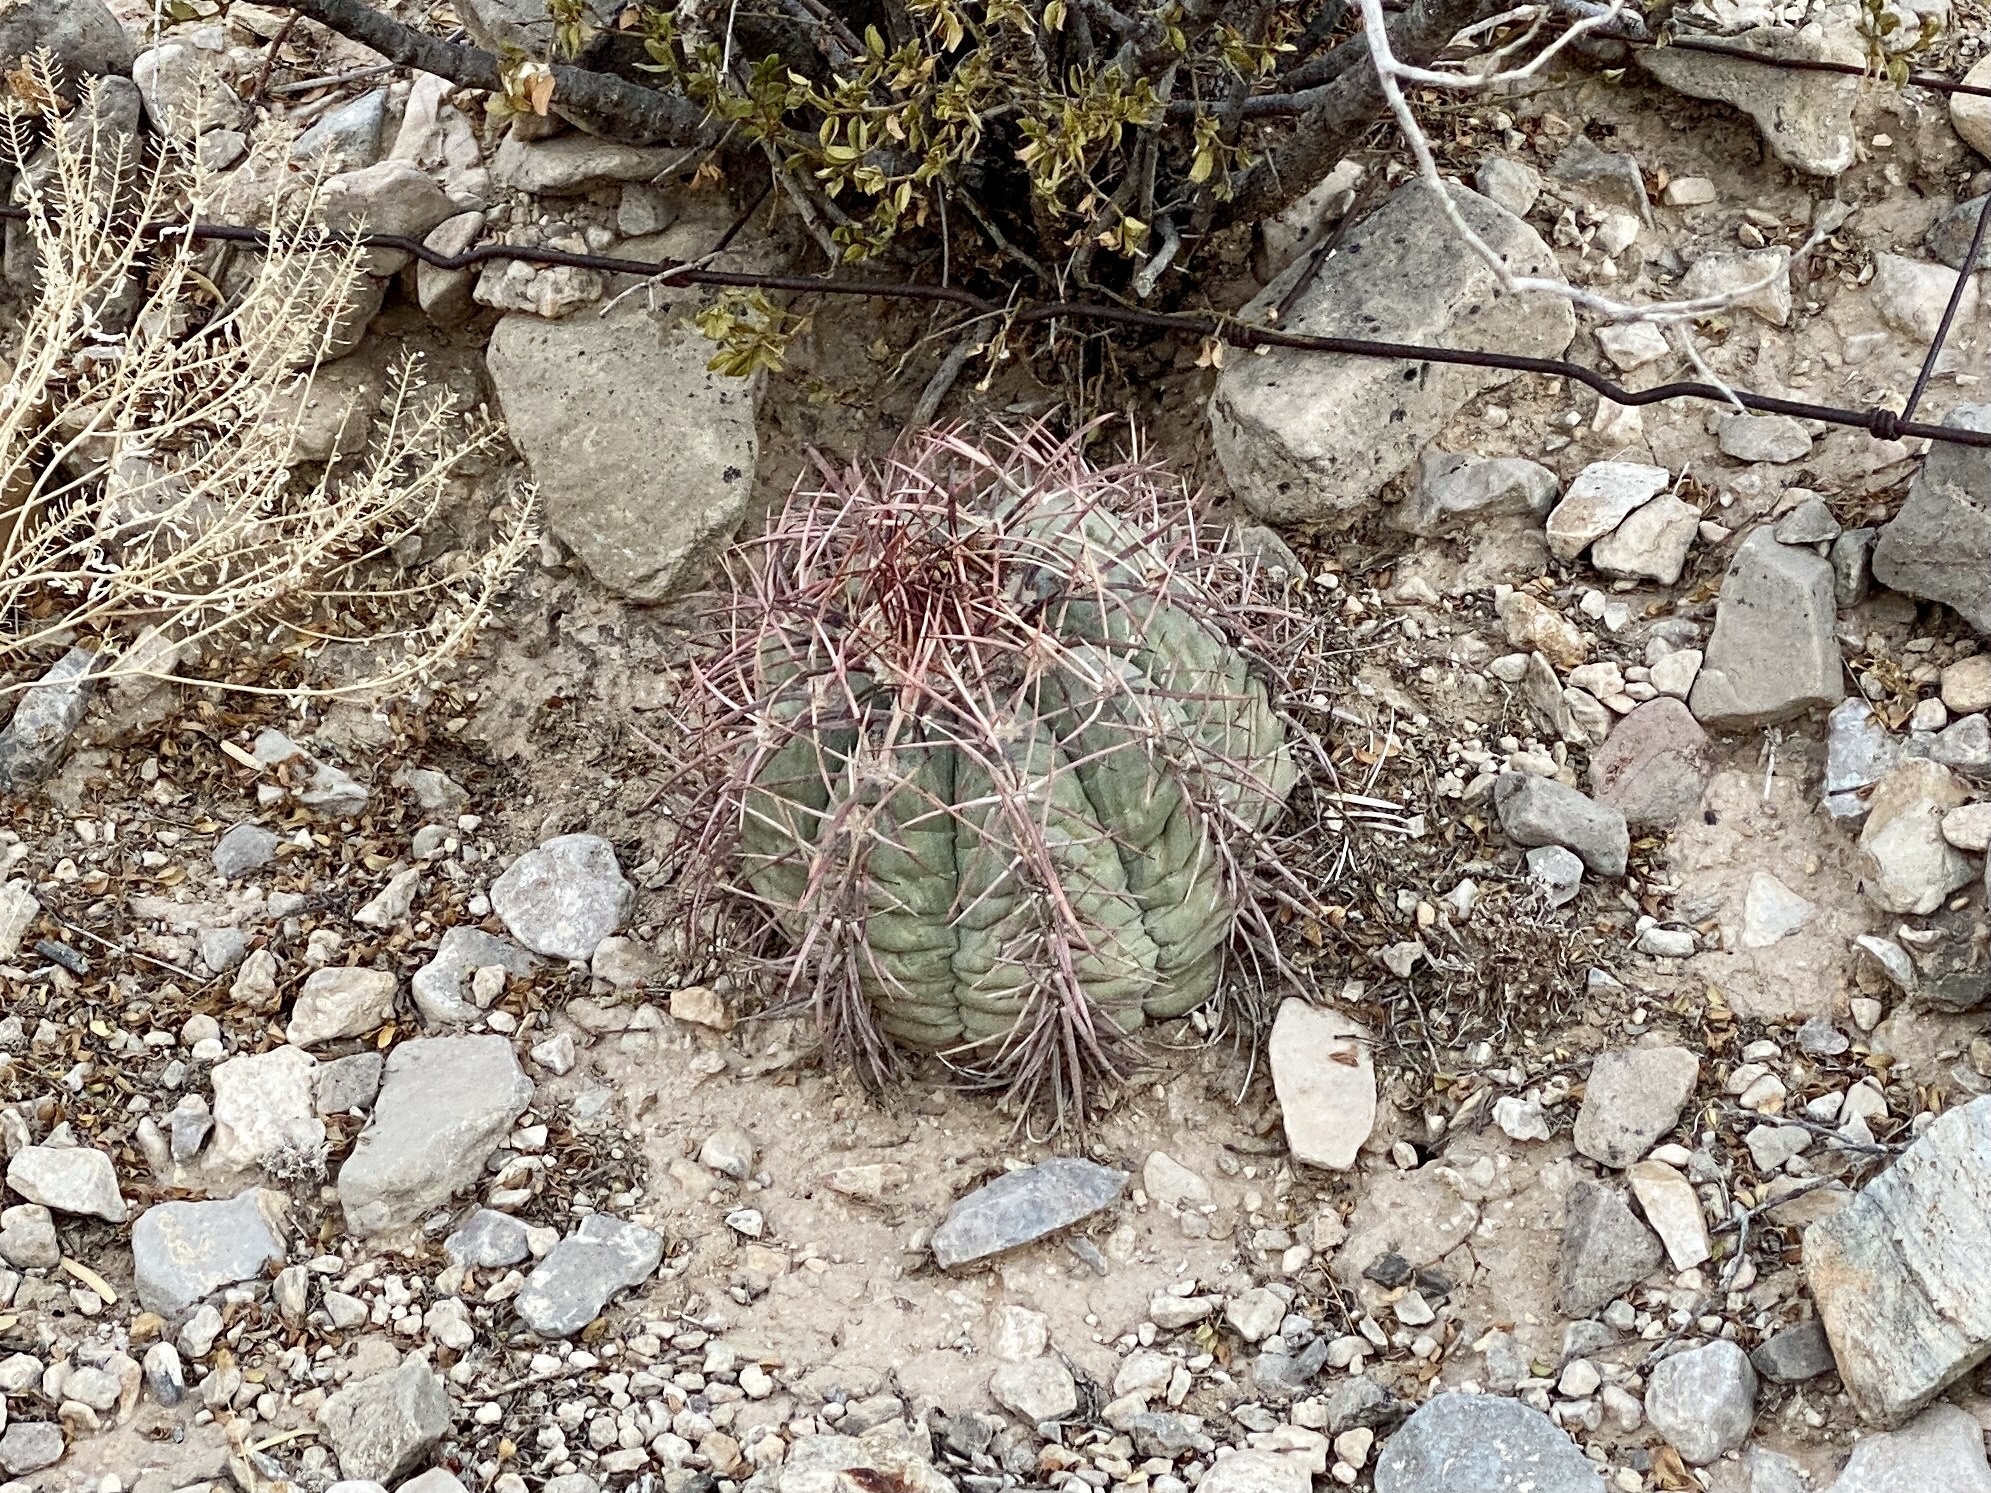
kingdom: Plantae
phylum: Tracheophyta
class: Magnoliopsida
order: Caryophyllales
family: Cactaceae
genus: Echinocactus
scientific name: Echinocactus horizonthalonius
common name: Devilshead
